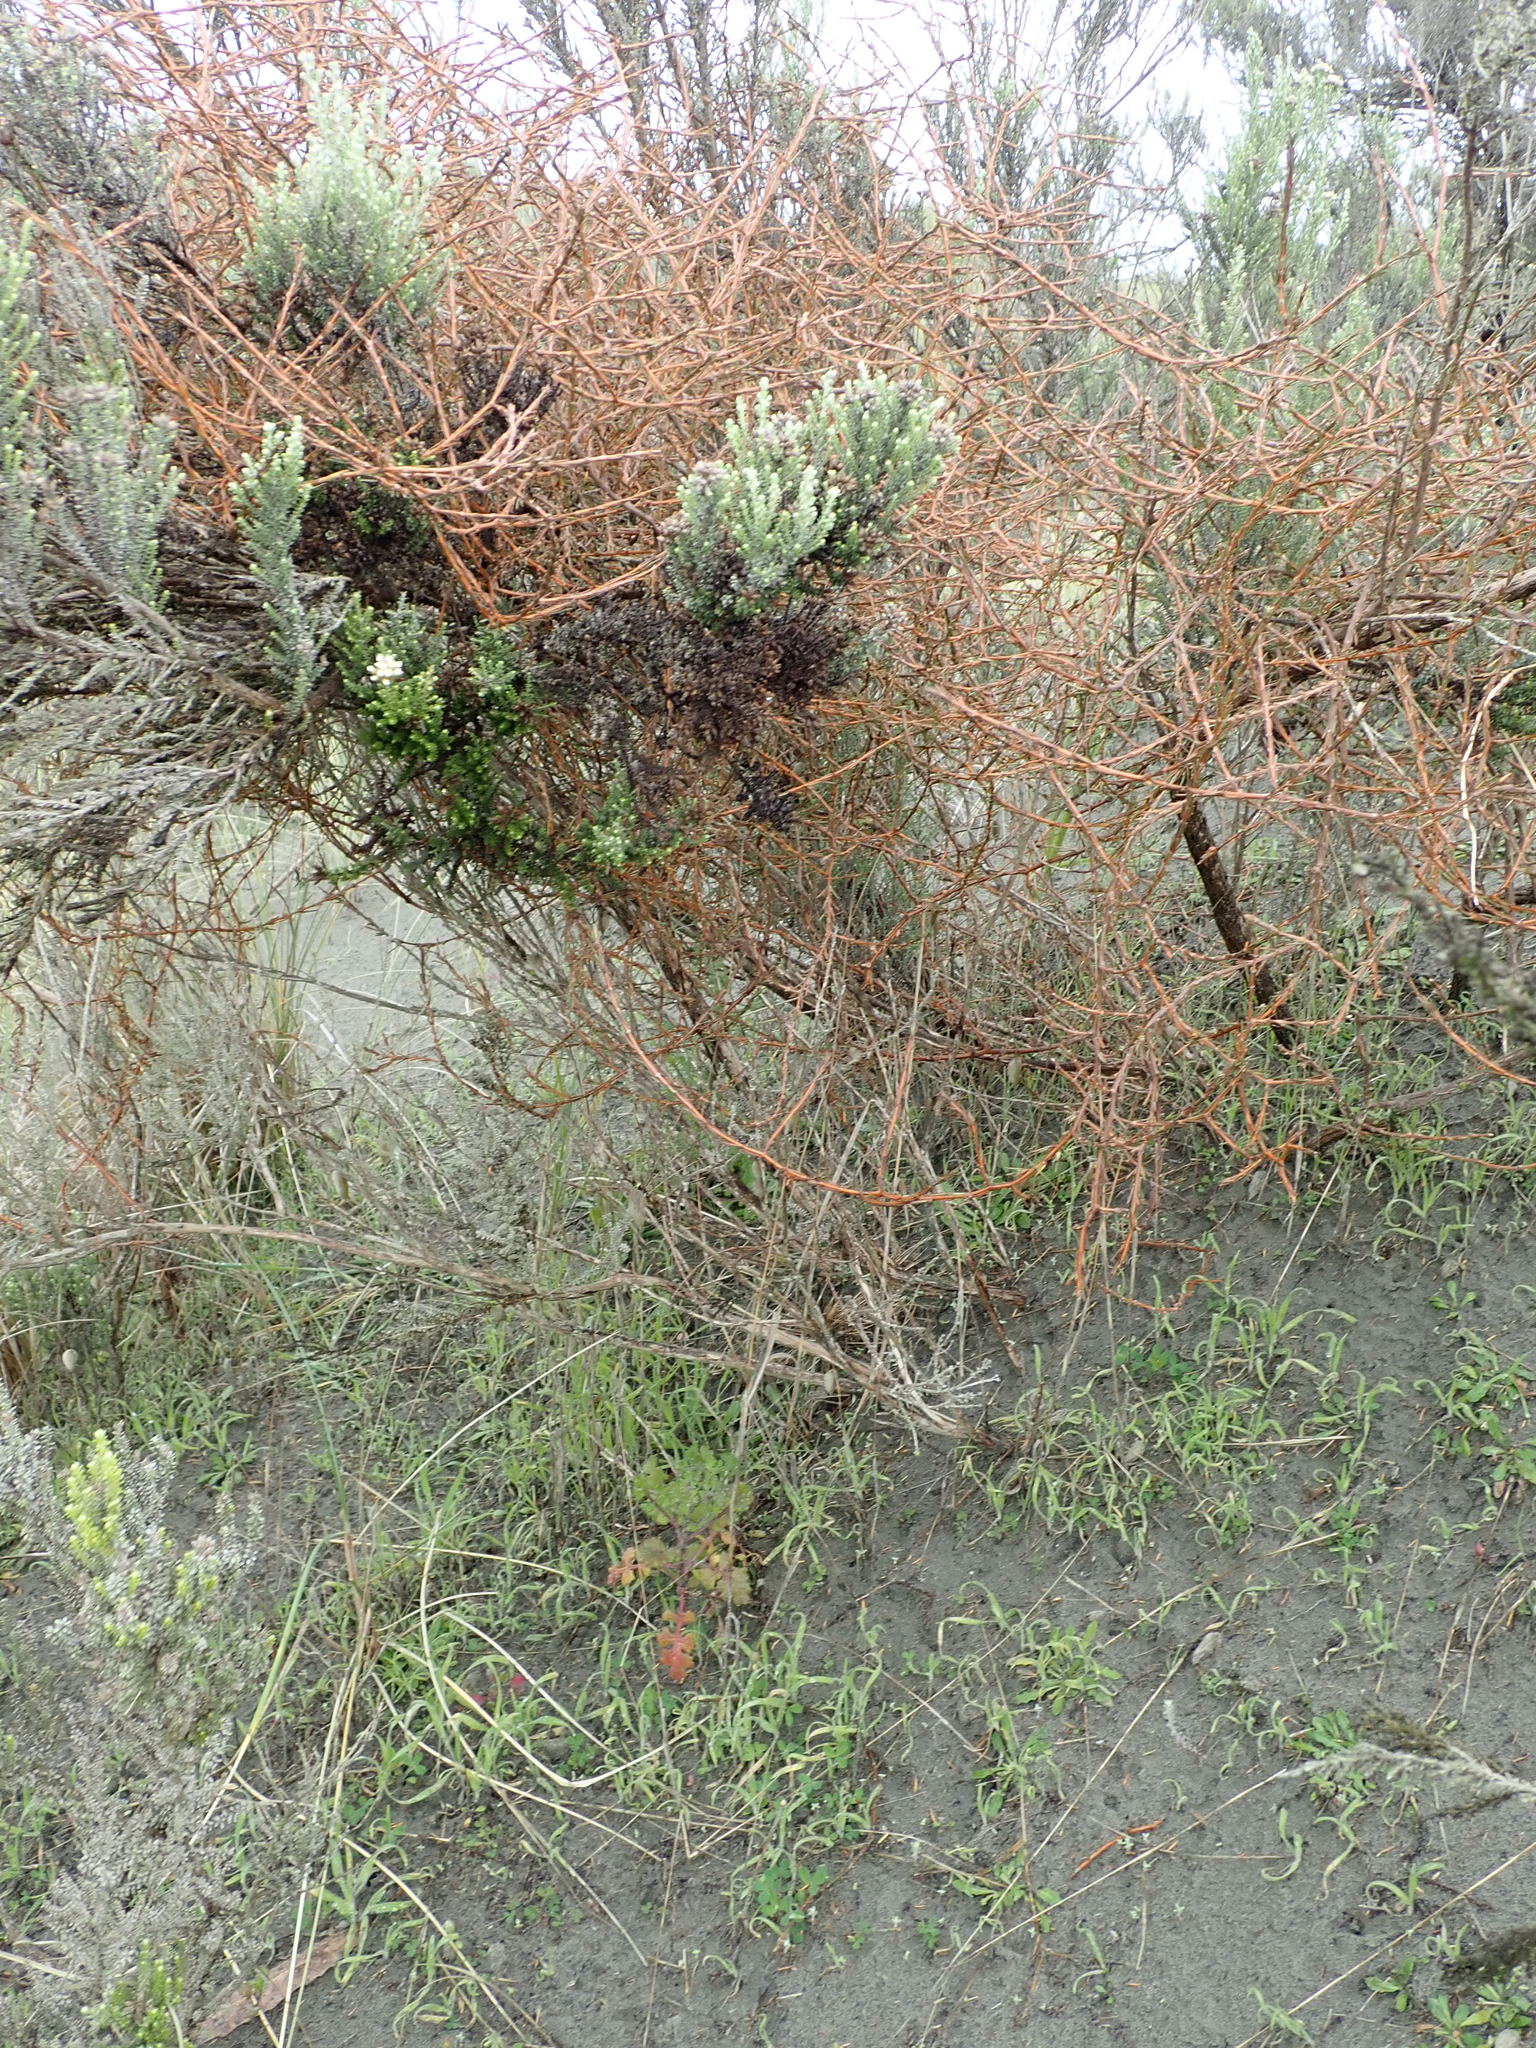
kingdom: Plantae
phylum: Tracheophyta
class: Magnoliopsida
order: Gentianales
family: Rubiaceae
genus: Coprosma
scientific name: Coprosma acerosa
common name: Sand coprosma
